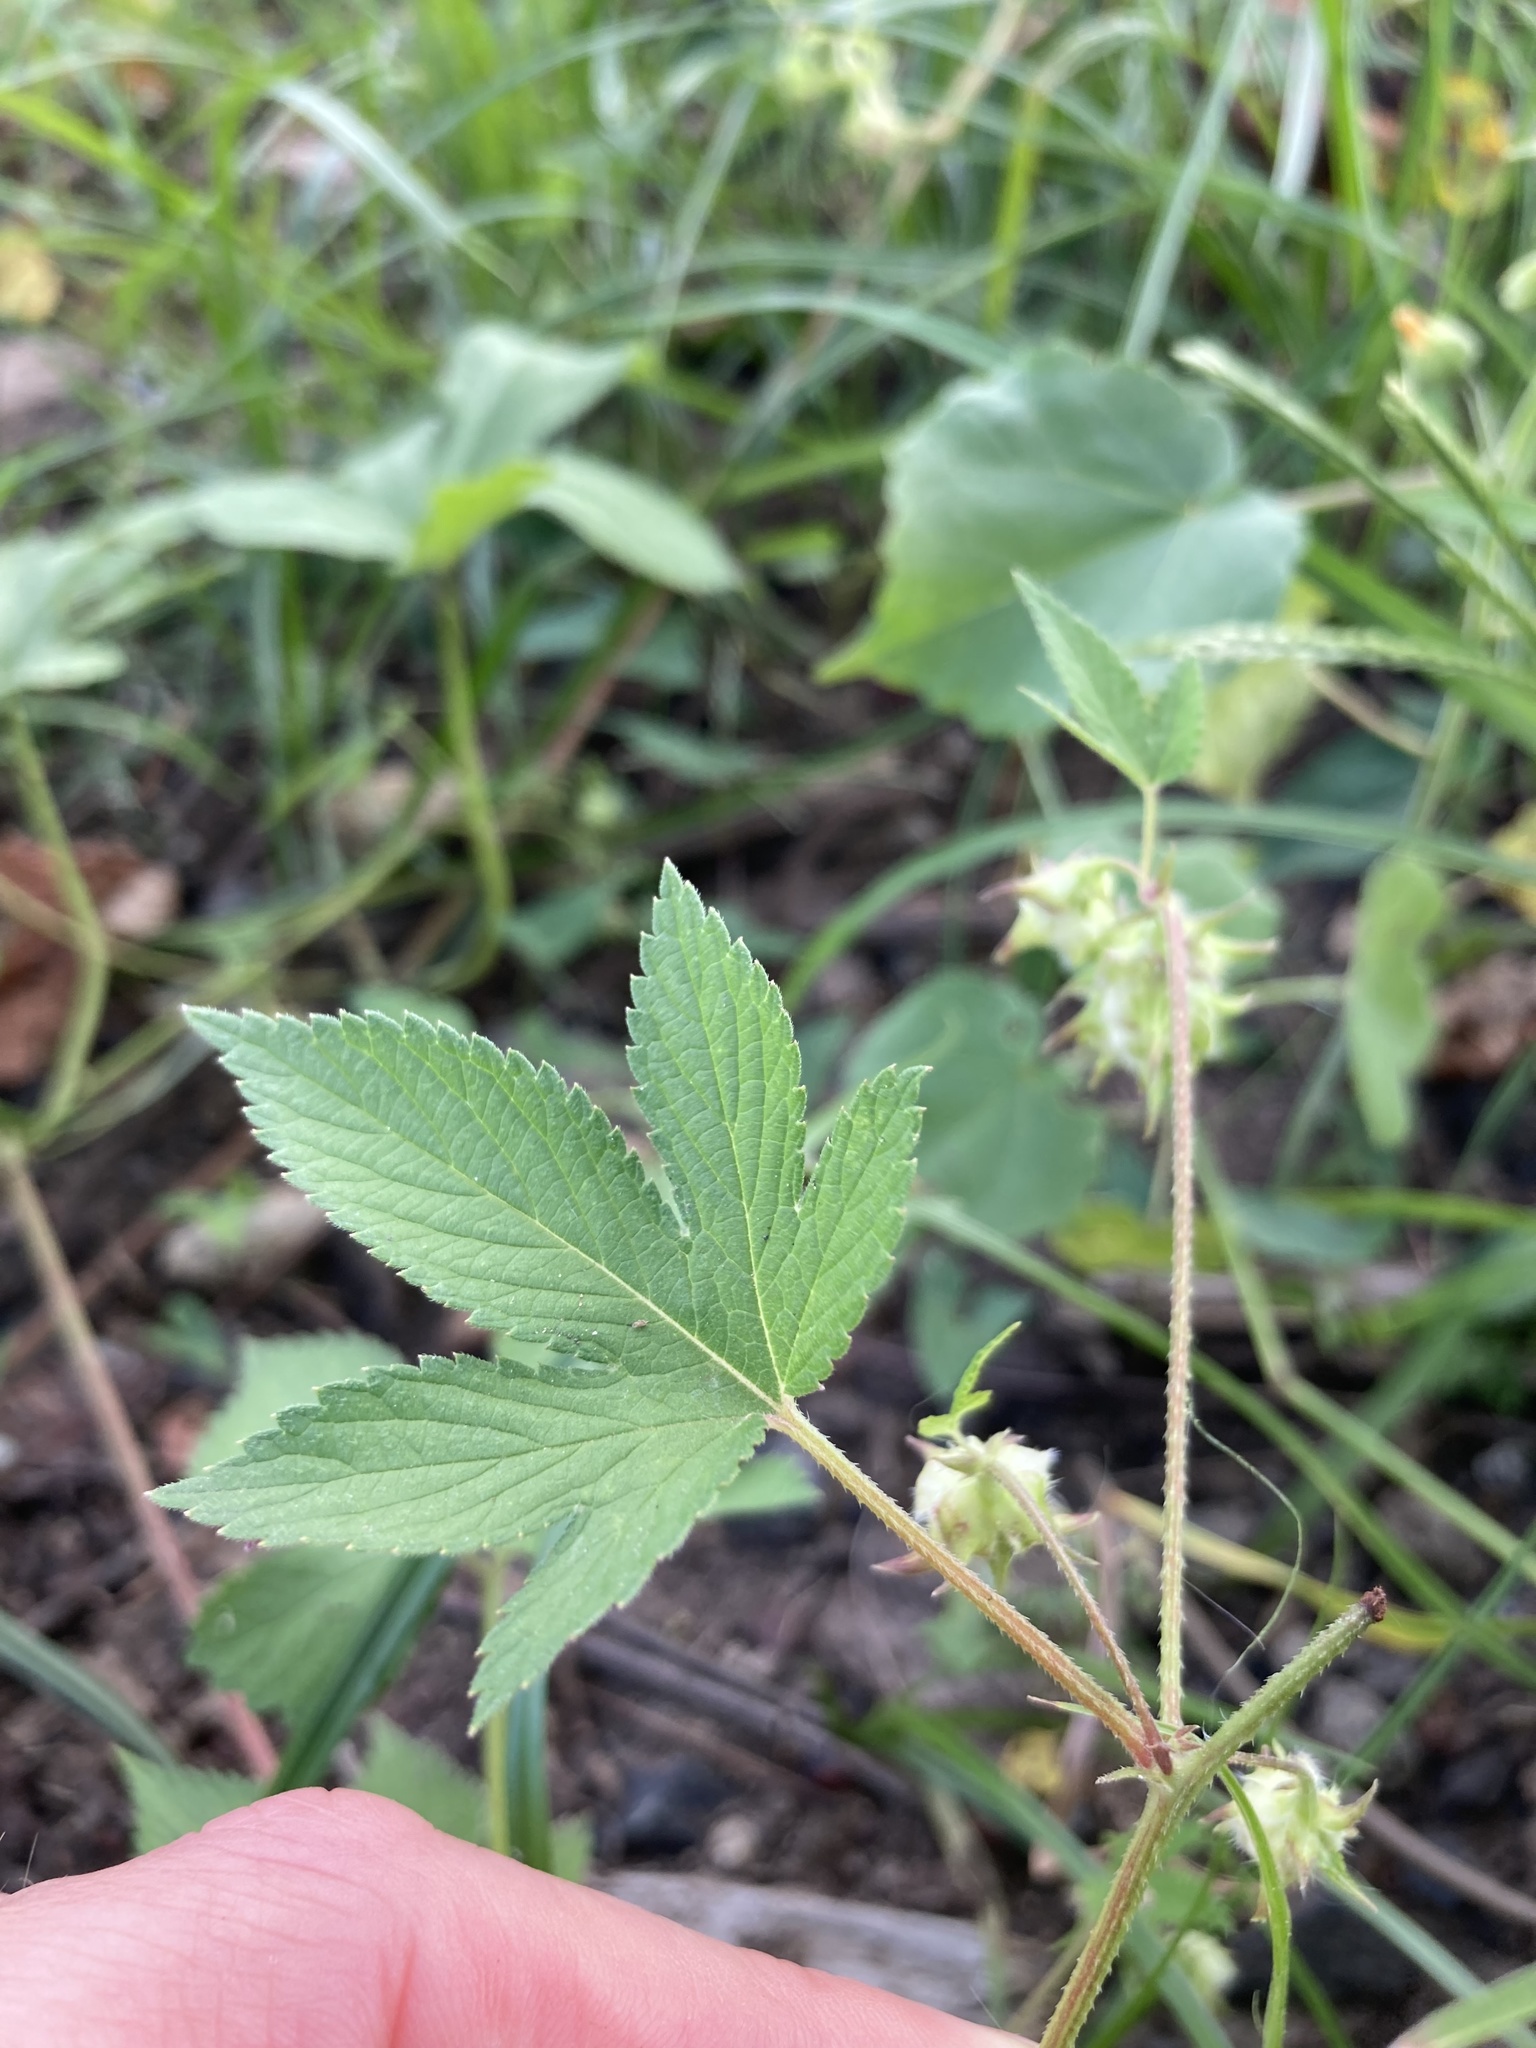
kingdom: Plantae
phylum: Tracheophyta
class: Magnoliopsida
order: Rosales
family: Cannabaceae
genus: Humulus
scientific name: Humulus scandens
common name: Japanese hop
